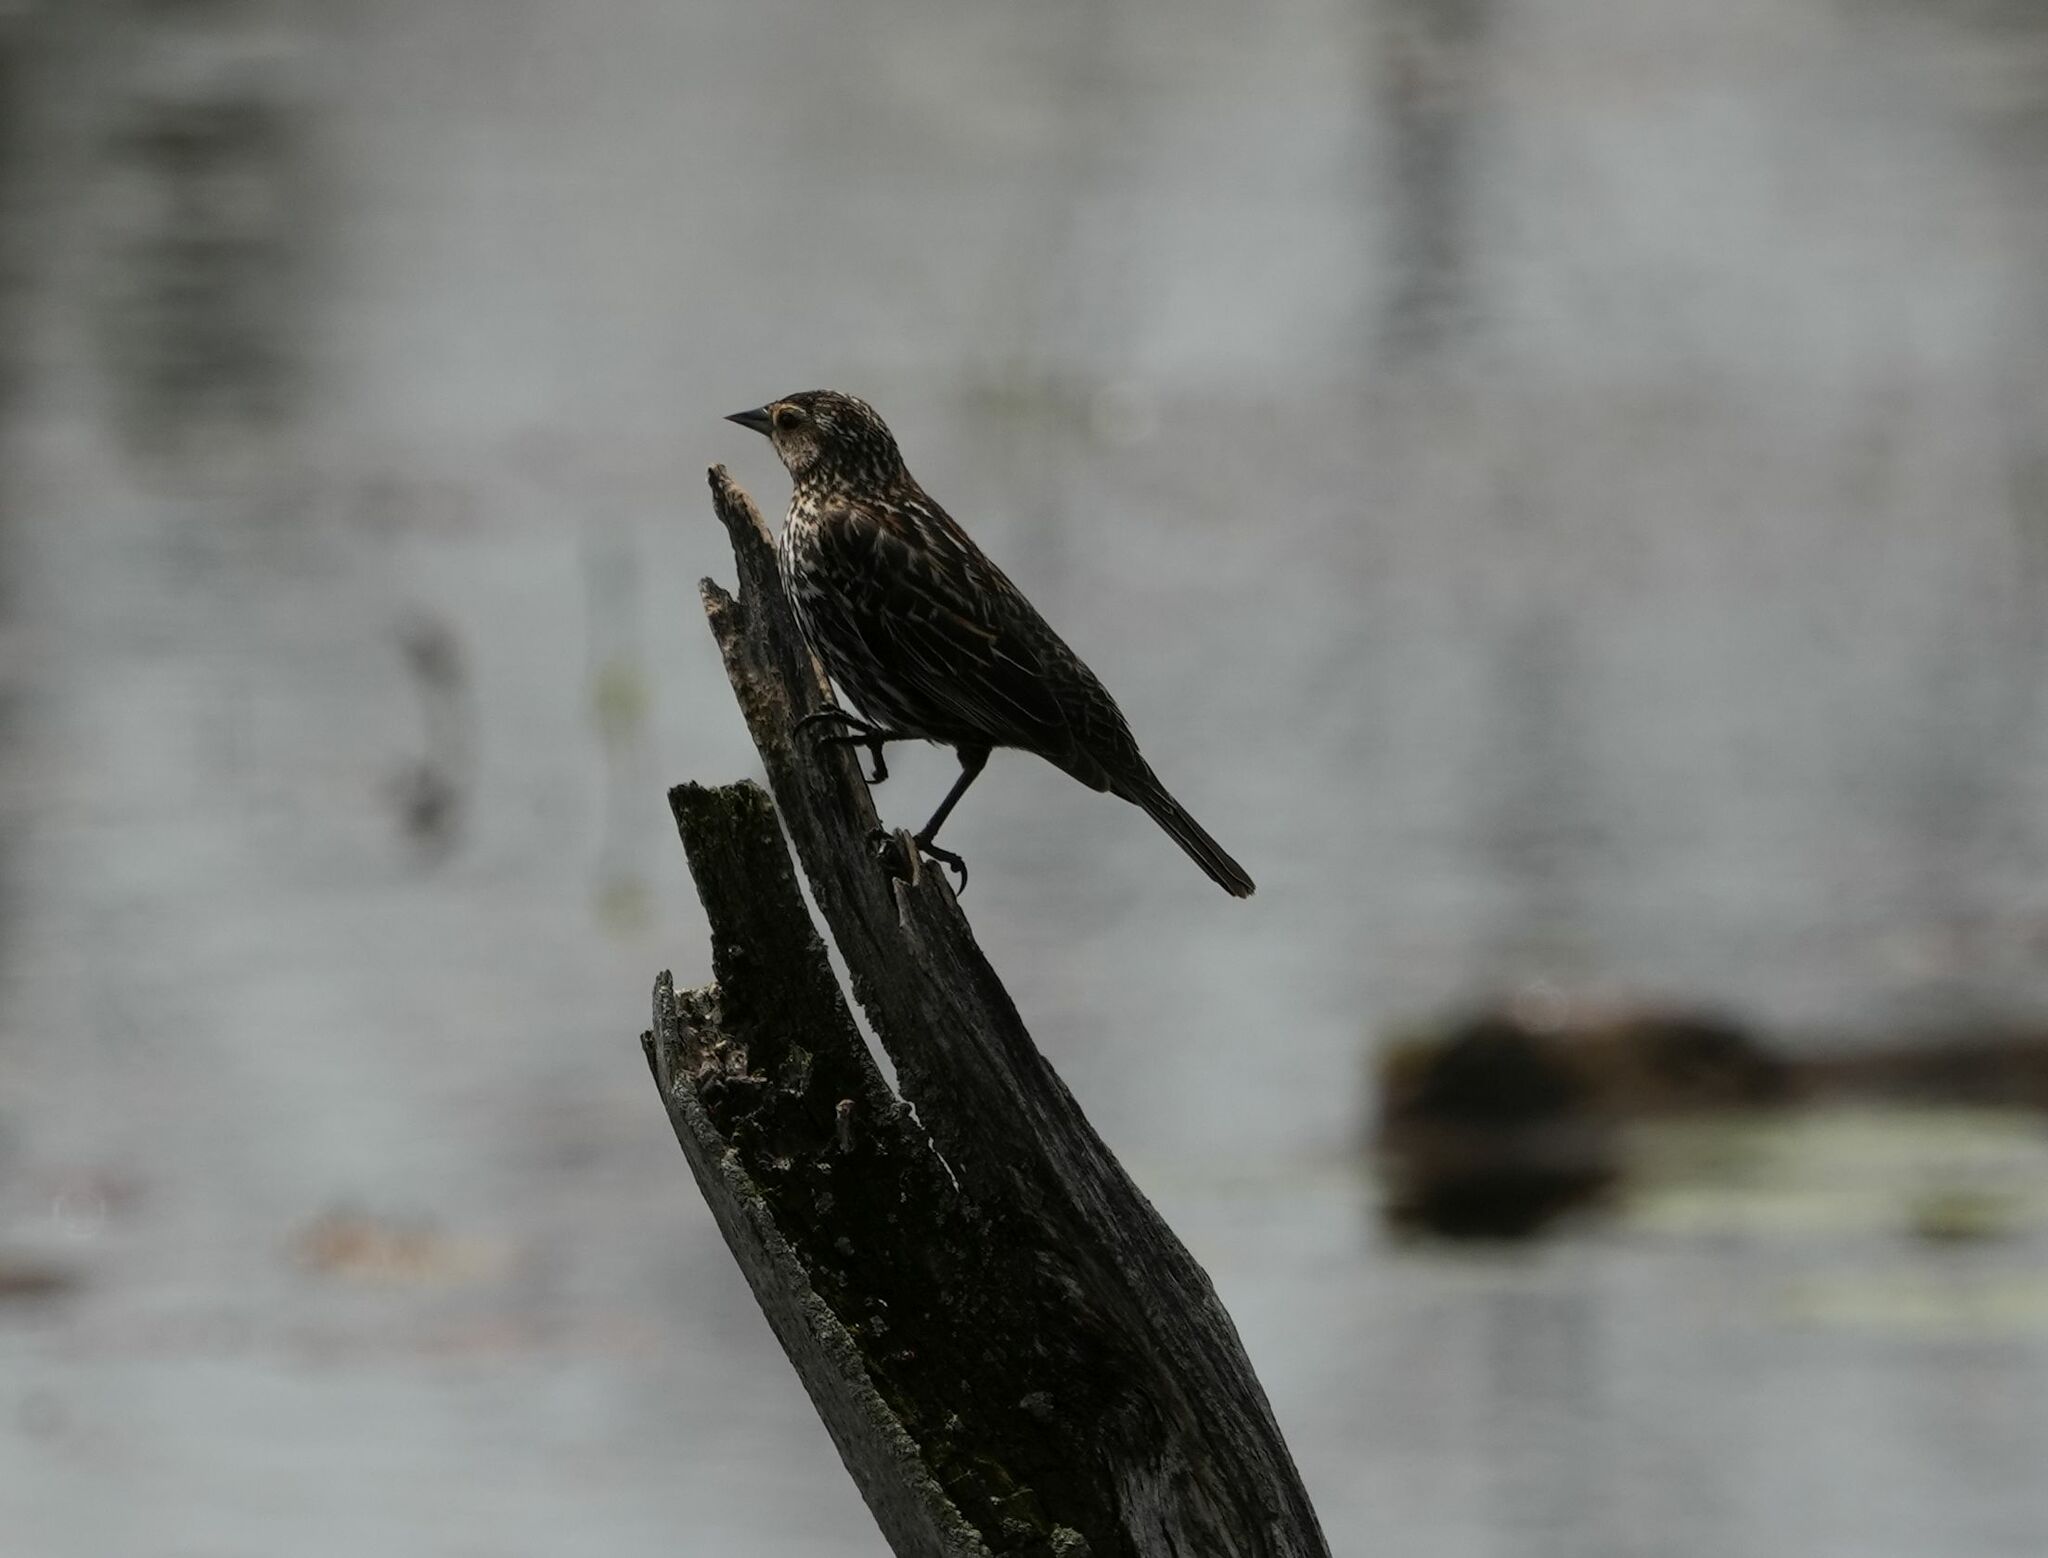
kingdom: Animalia
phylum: Chordata
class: Aves
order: Passeriformes
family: Icteridae
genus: Agelaius
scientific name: Agelaius phoeniceus
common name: Red-winged blackbird
